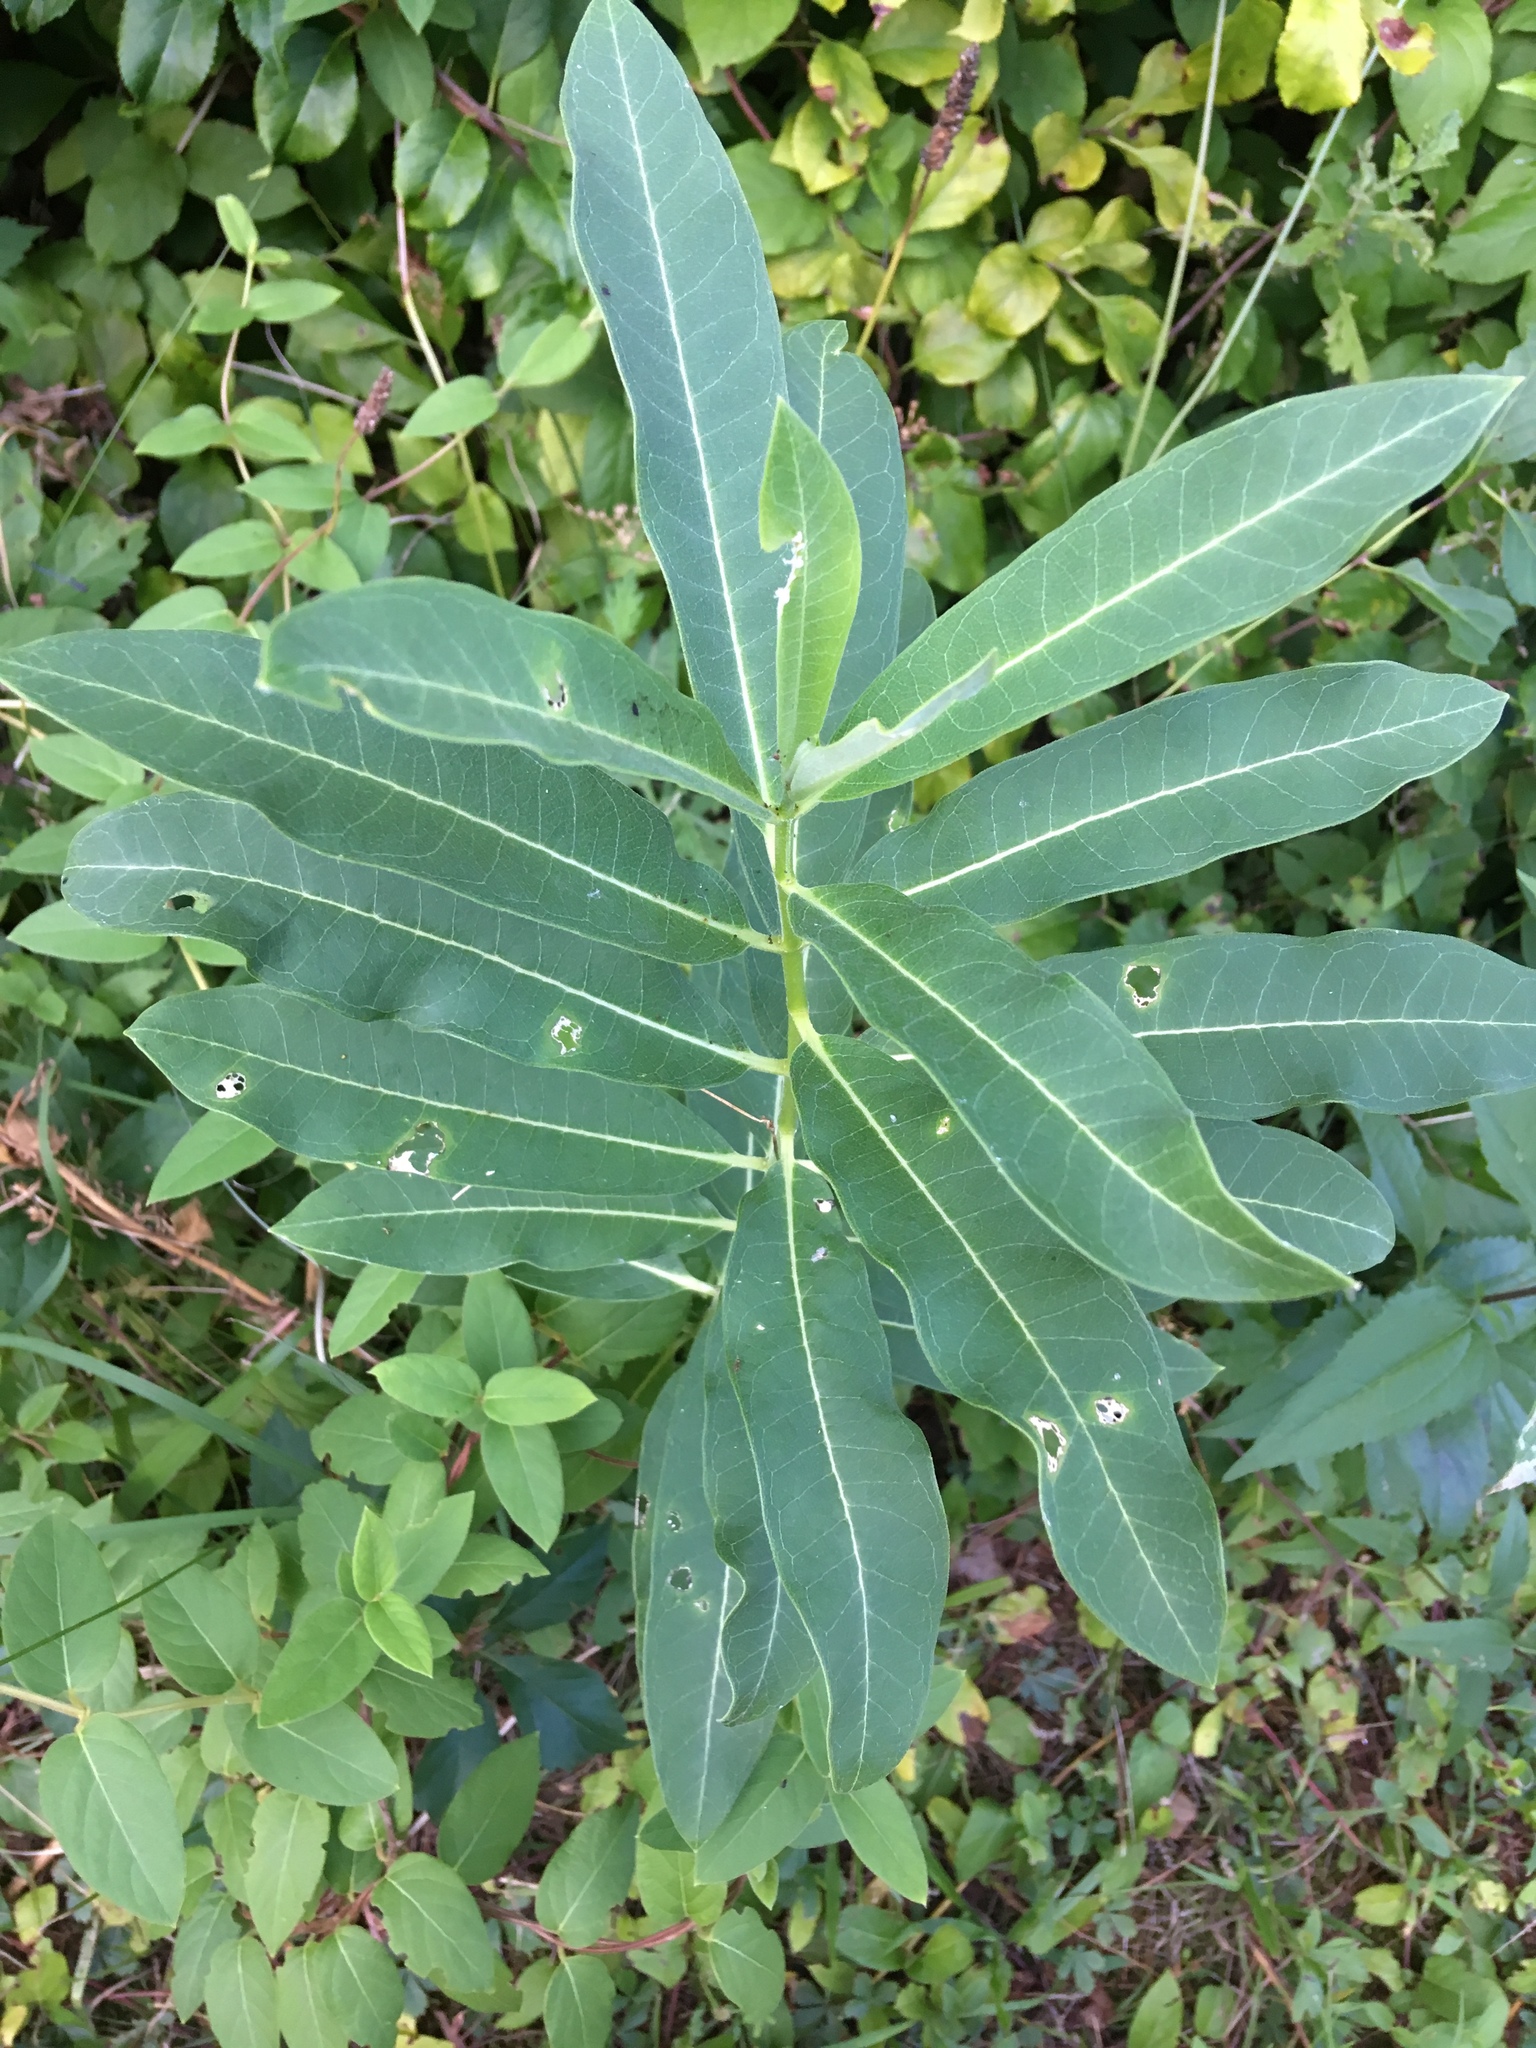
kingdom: Plantae
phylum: Tracheophyta
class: Magnoliopsida
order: Gentianales
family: Apocynaceae
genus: Asclepias
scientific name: Asclepias syriaca
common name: Common milkweed
